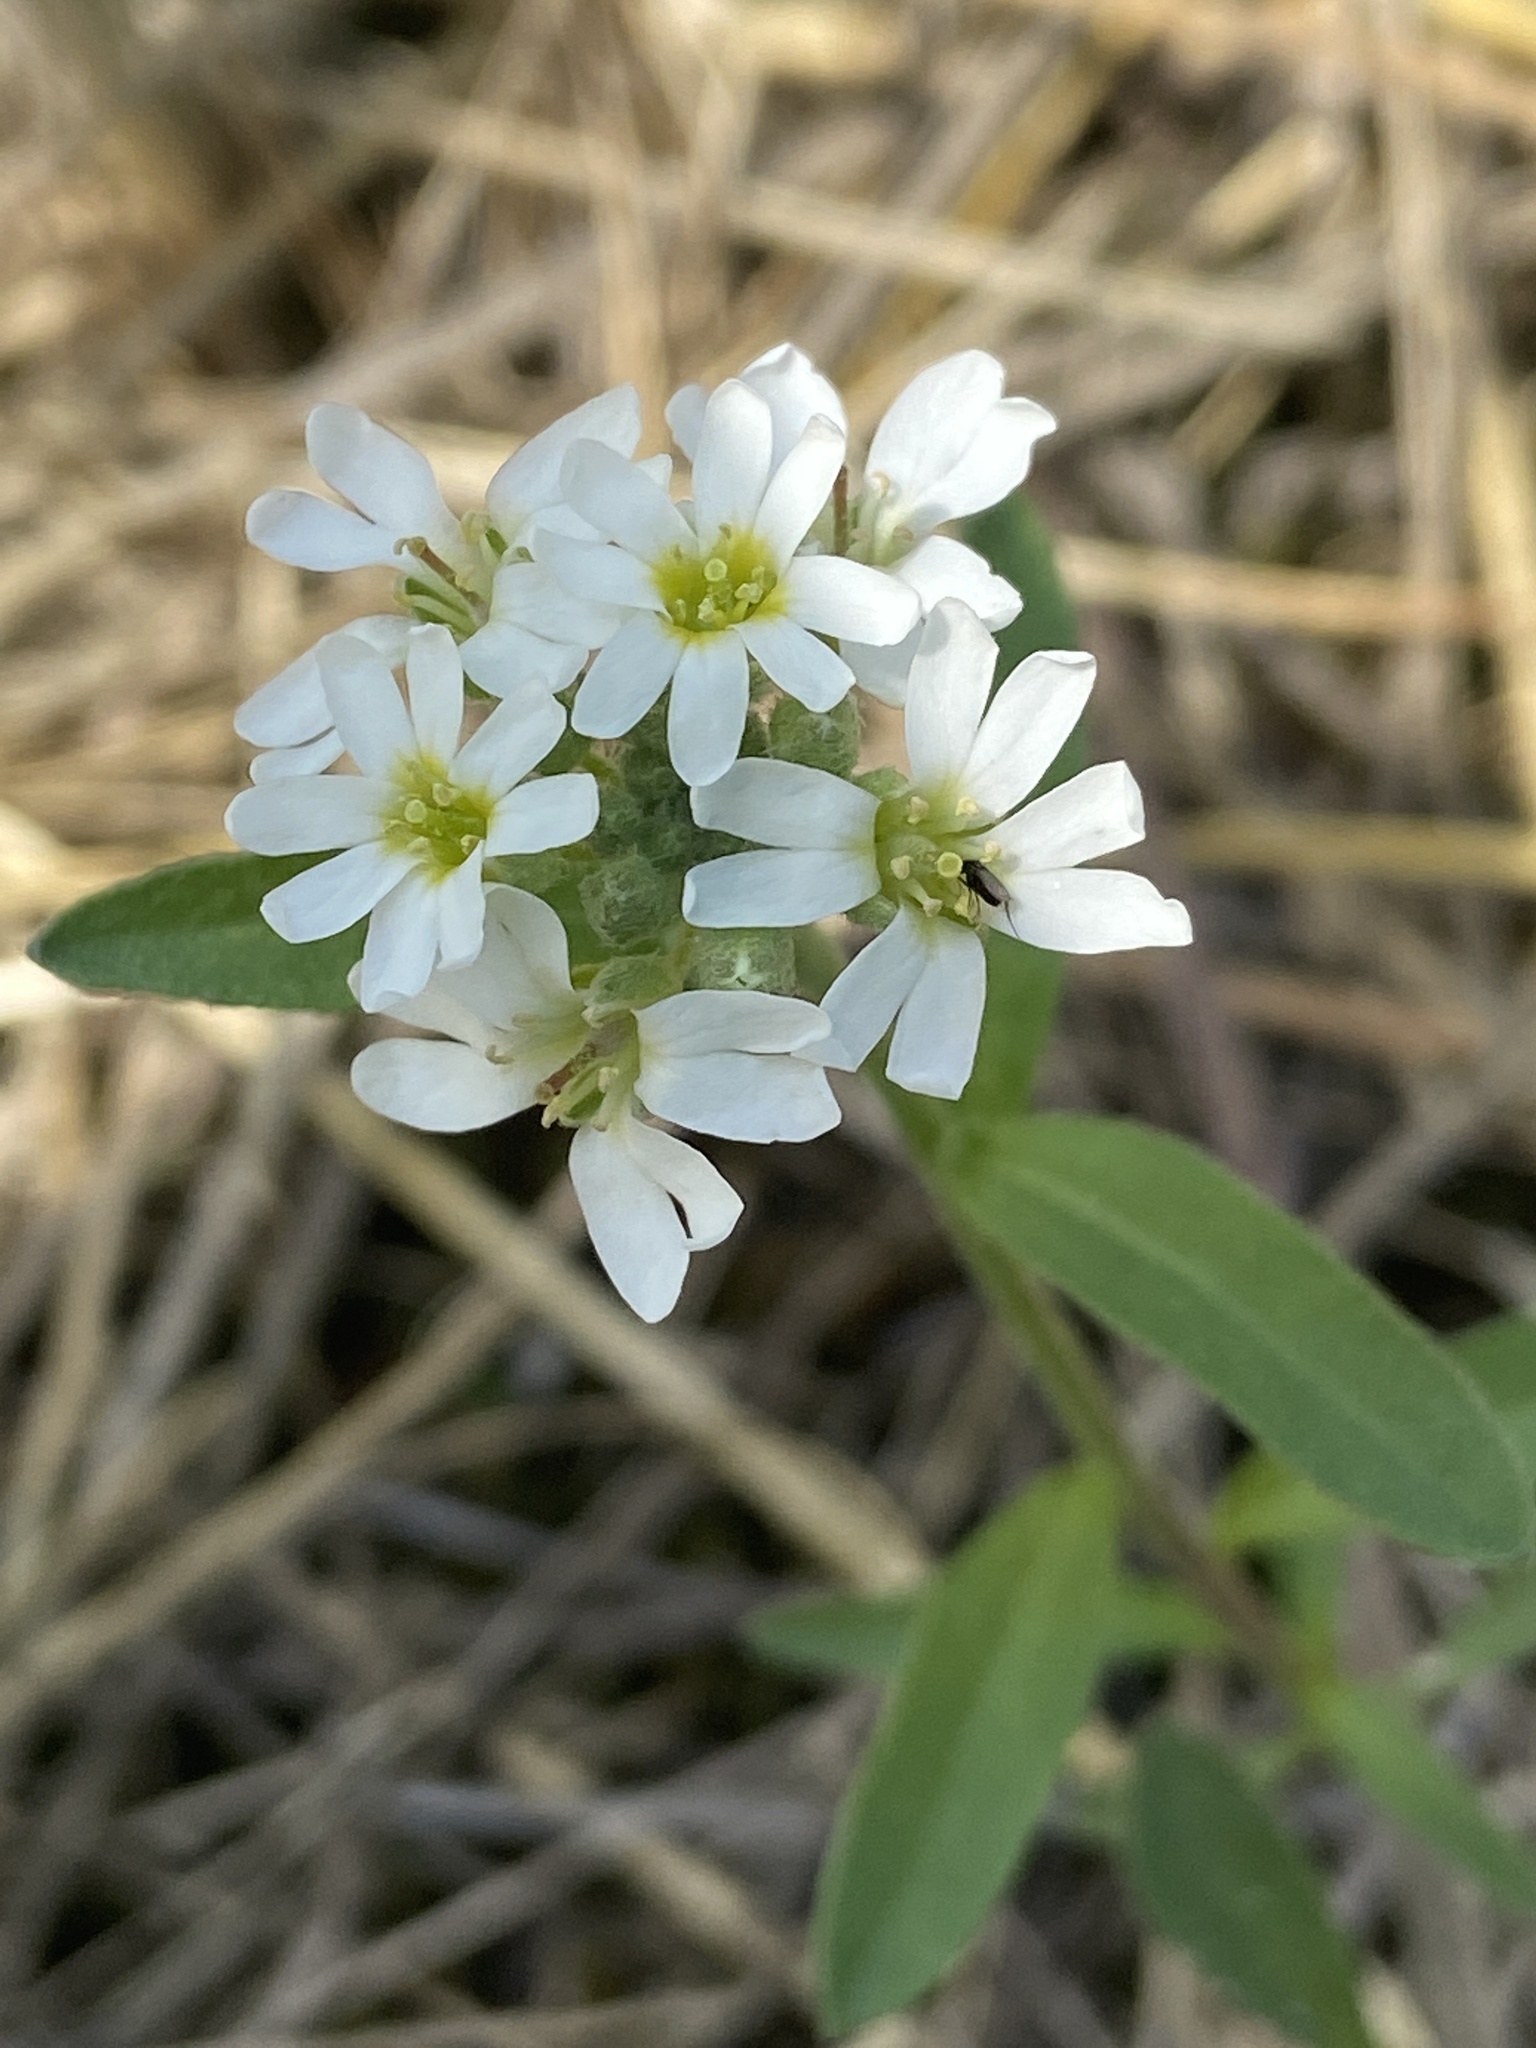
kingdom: Plantae
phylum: Tracheophyta
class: Magnoliopsida
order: Brassicales
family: Brassicaceae
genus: Berteroa
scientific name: Berteroa incana
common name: Hoary alison
